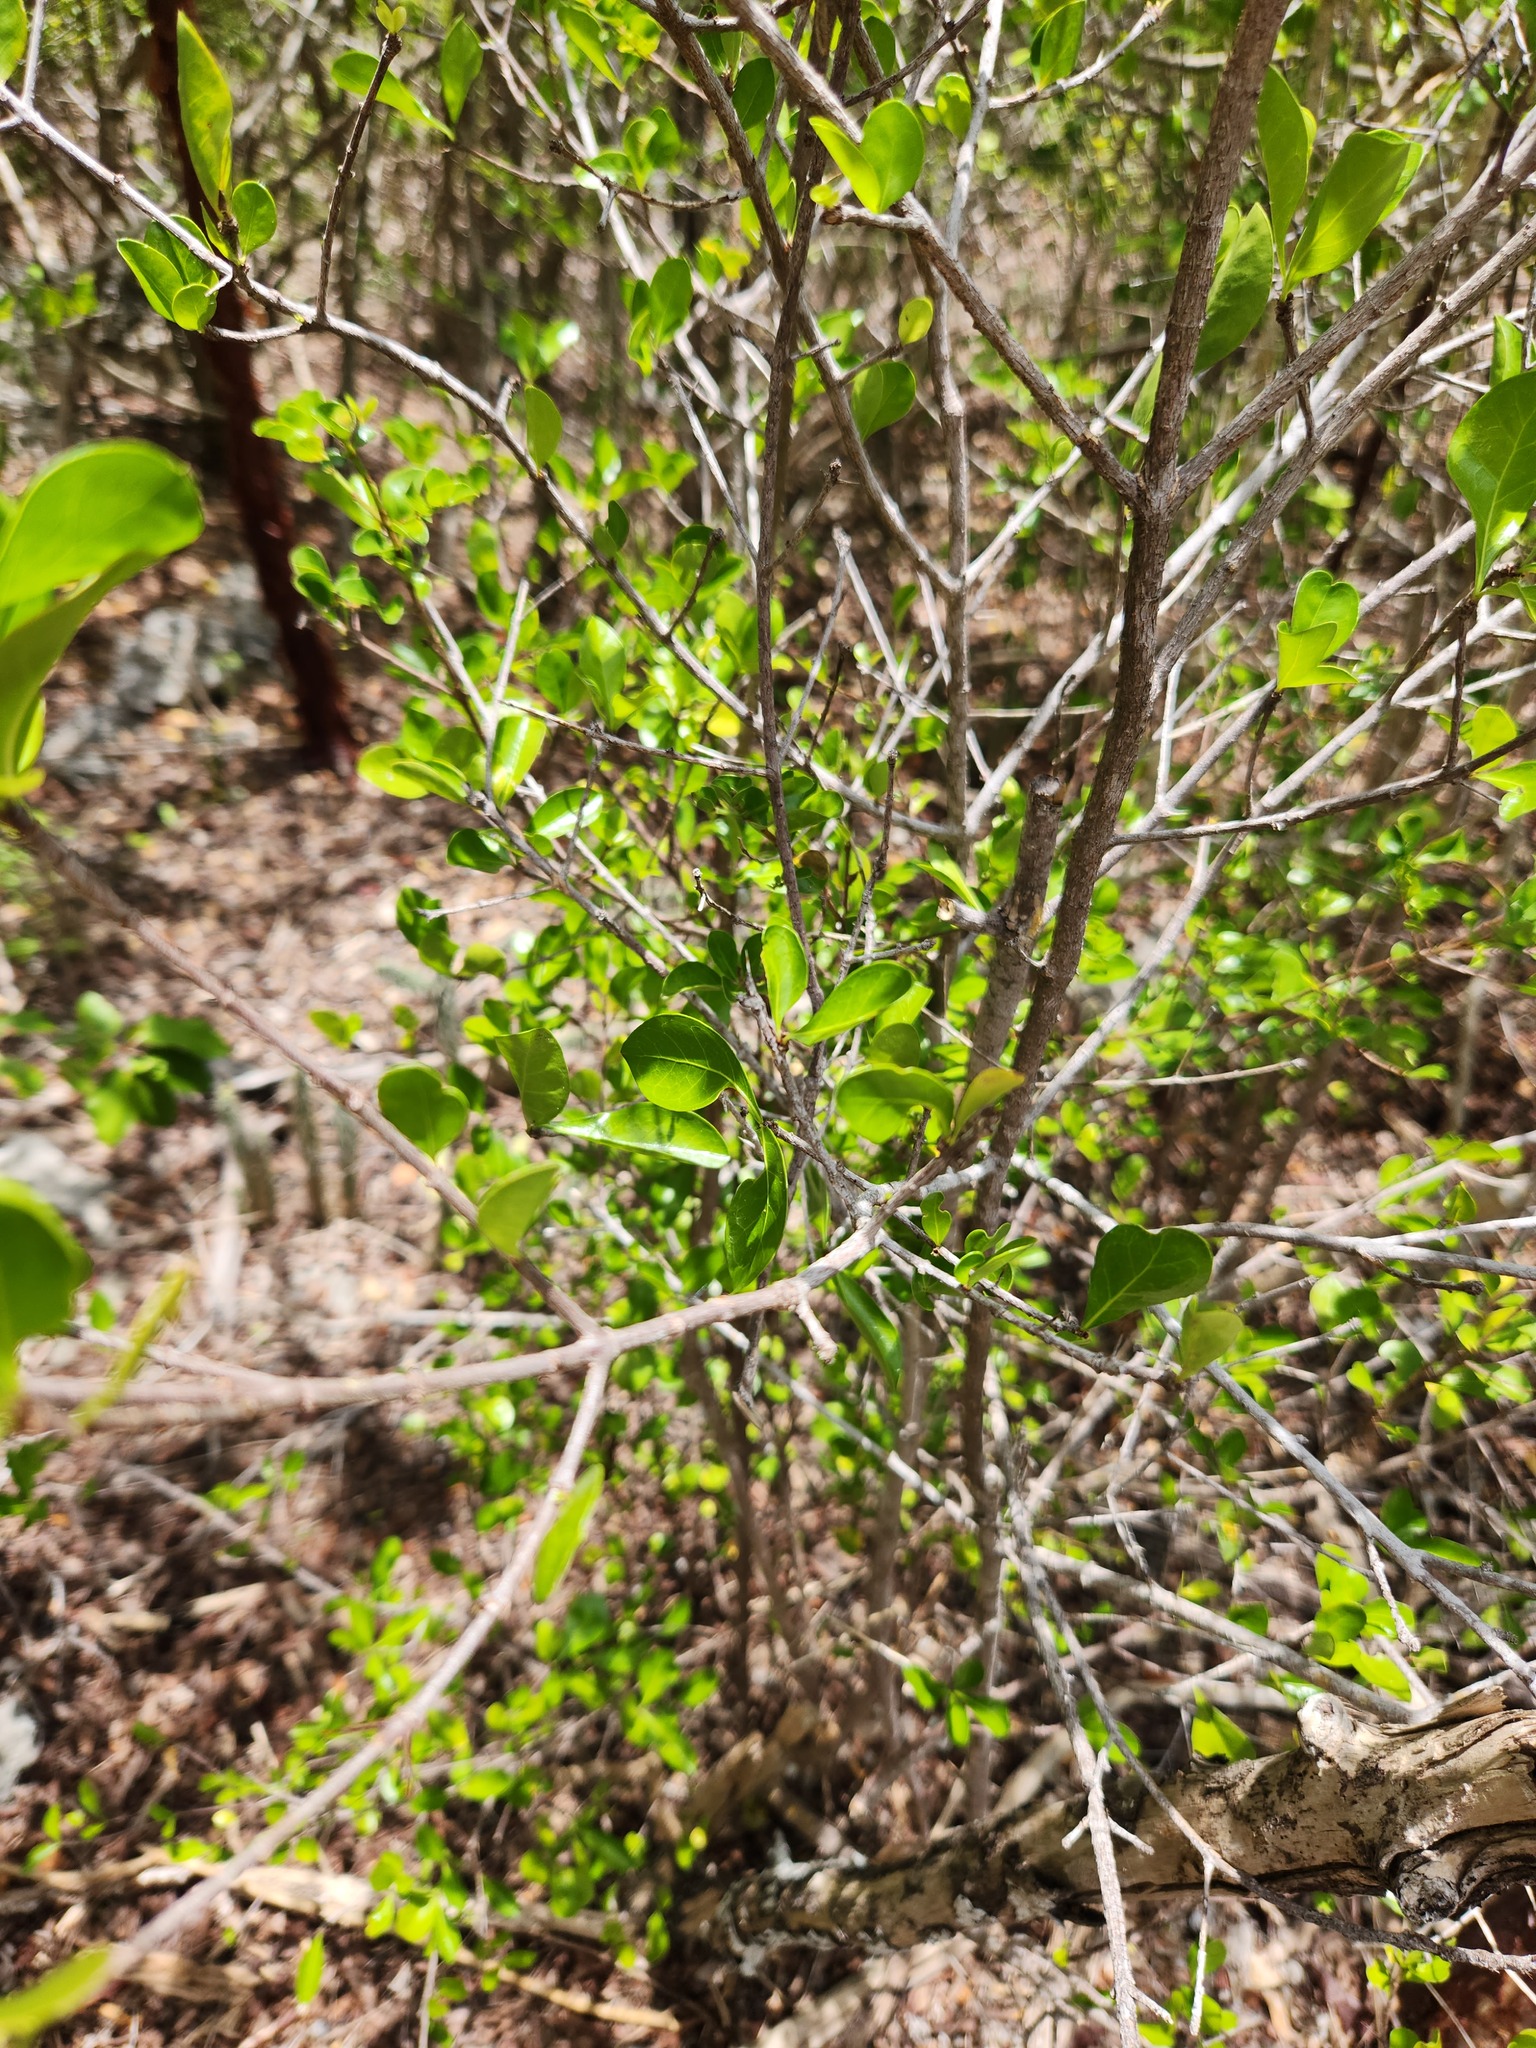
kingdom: Plantae
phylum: Tracheophyta
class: Magnoliopsida
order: Gentianales
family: Rubiaceae
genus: Randia
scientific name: Randia aculeata
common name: Inkberry
